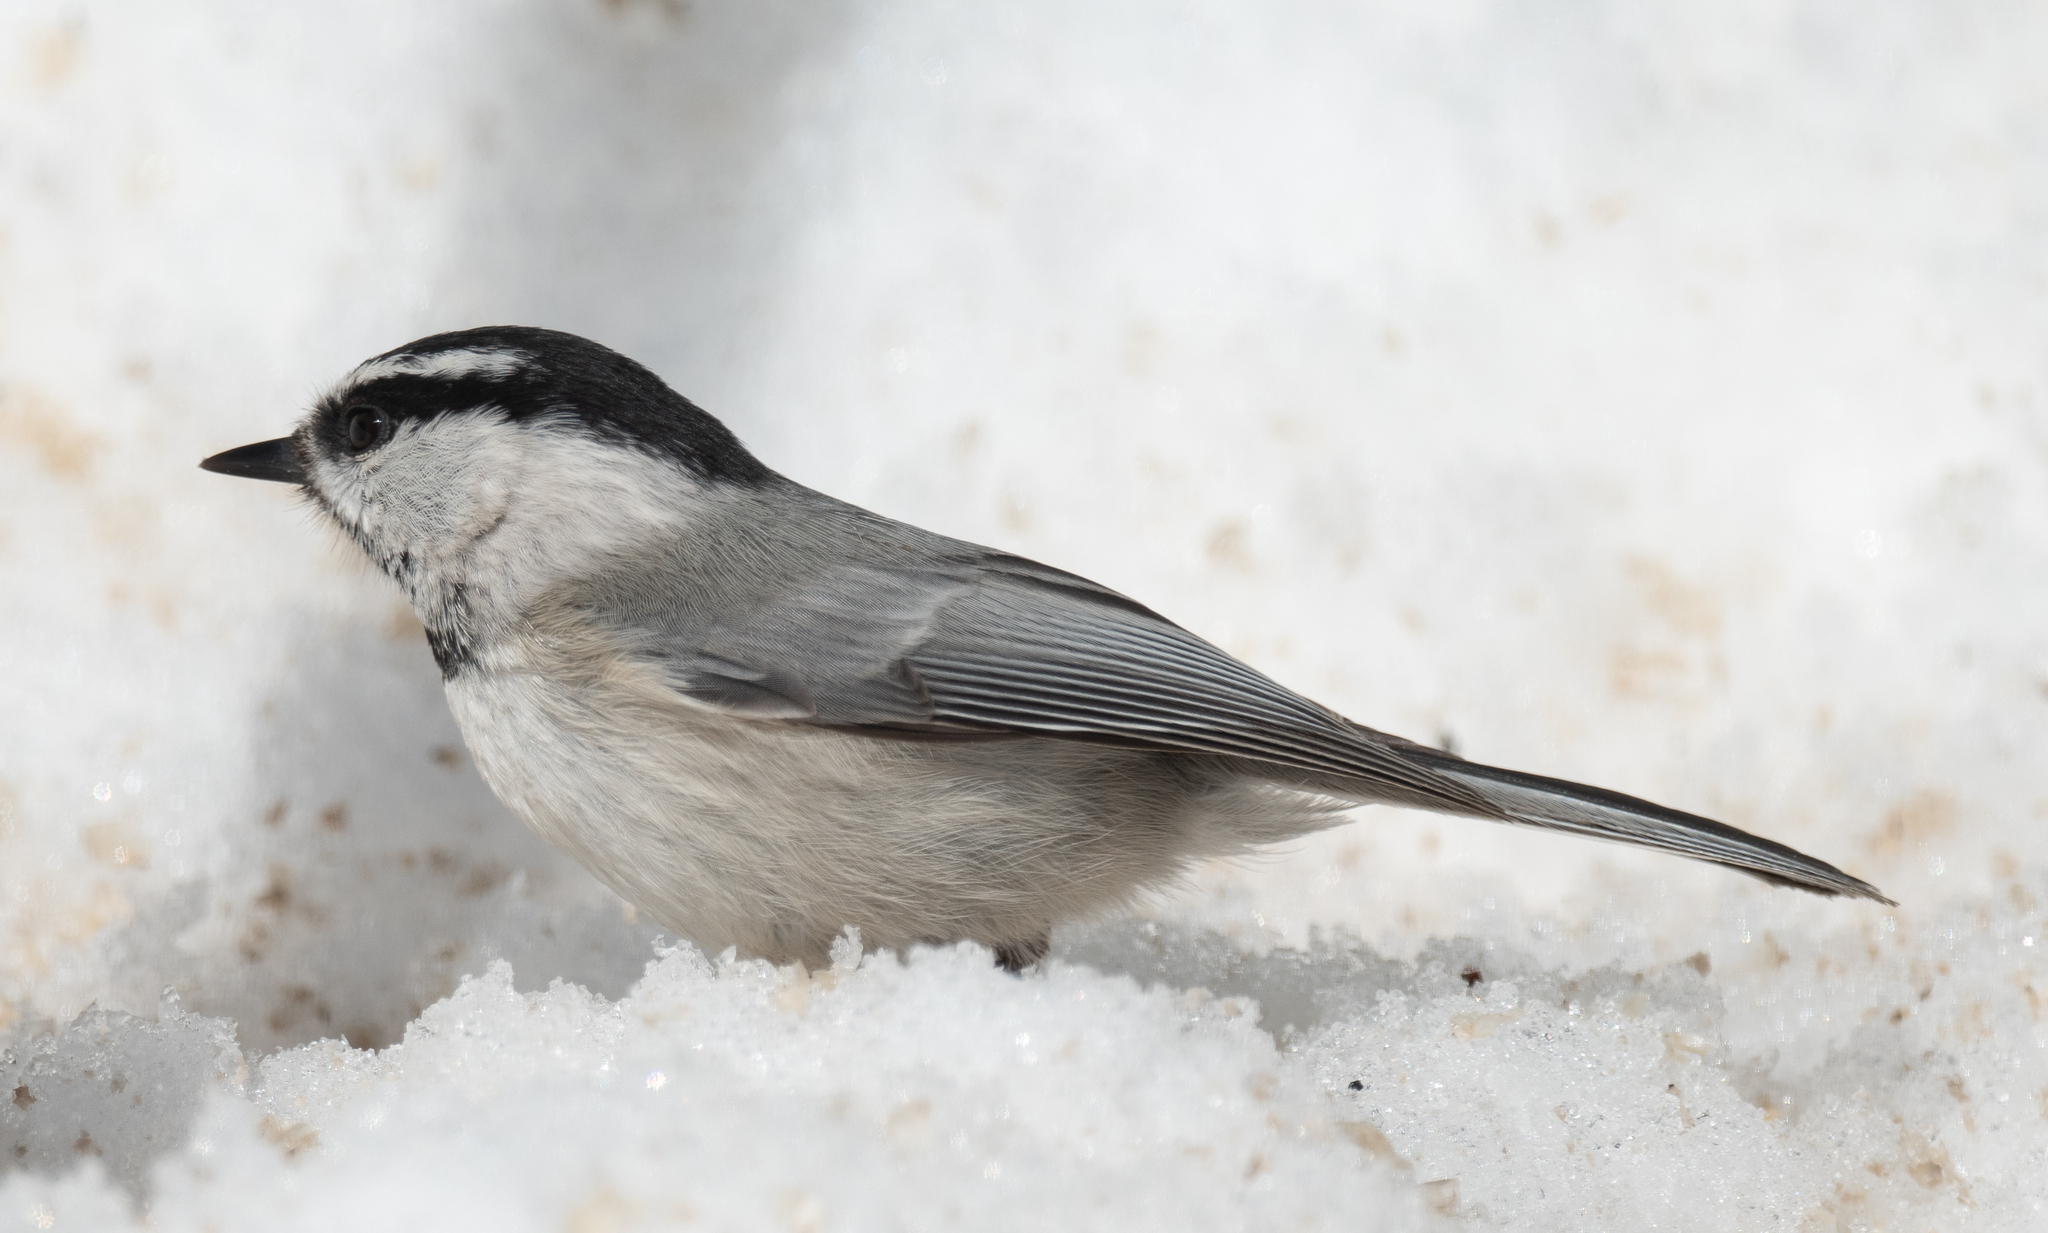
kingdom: Animalia
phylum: Chordata
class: Aves
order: Passeriformes
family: Paridae
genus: Poecile
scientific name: Poecile gambeli
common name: Mountain chickadee
